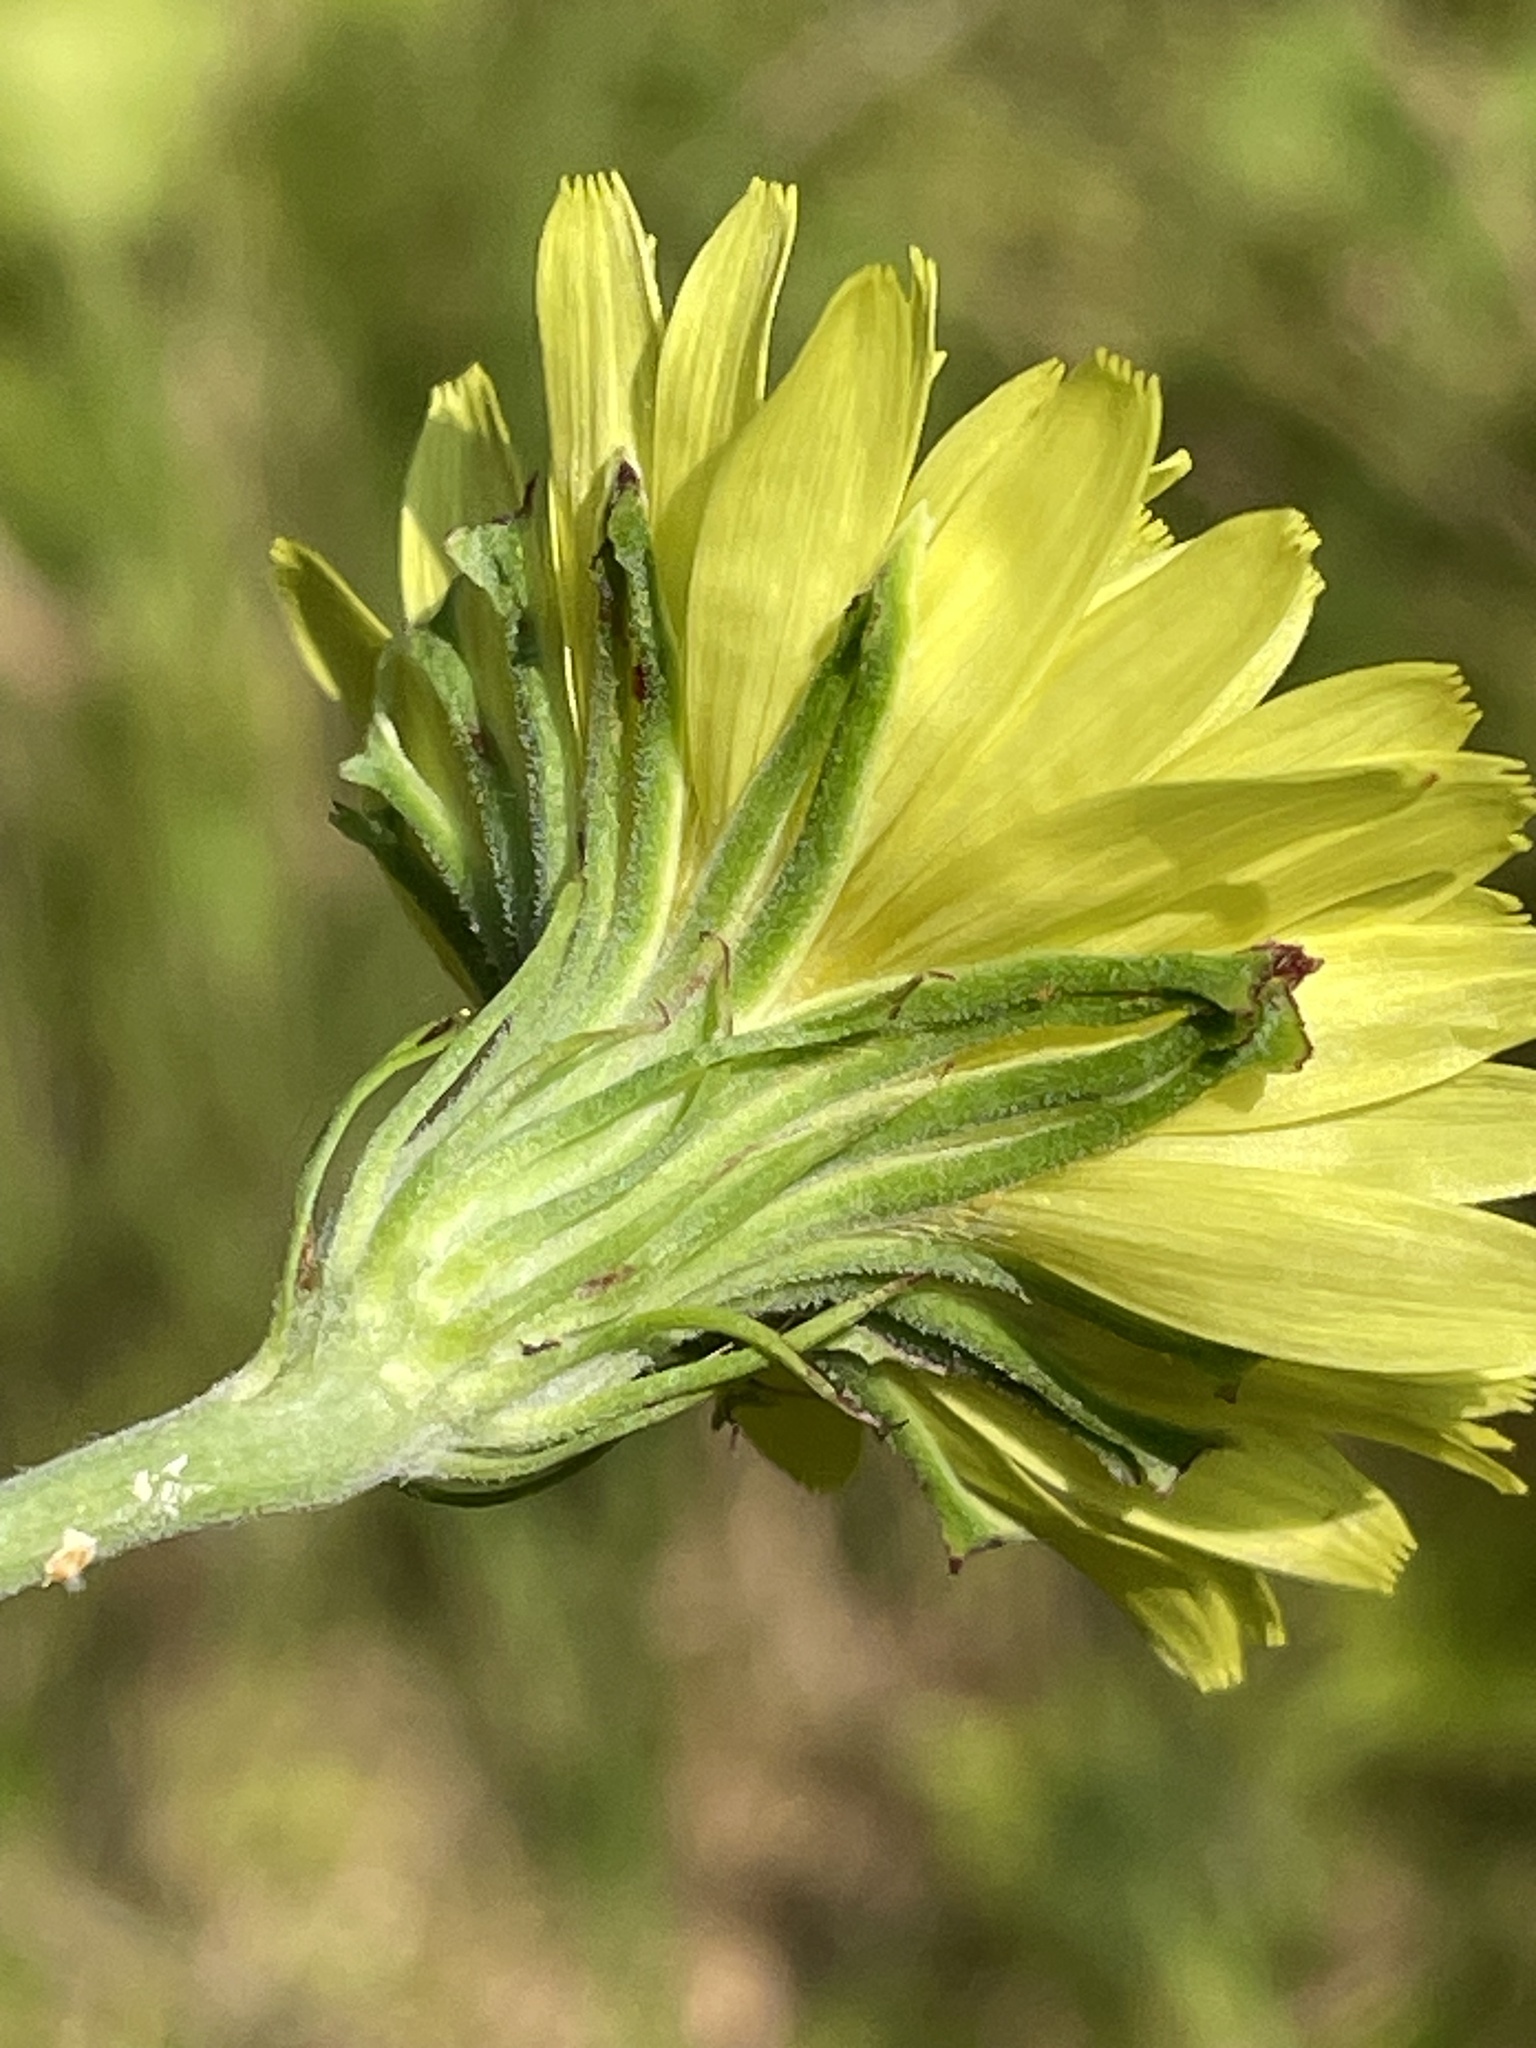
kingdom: Plantae
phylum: Tracheophyta
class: Magnoliopsida
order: Asterales
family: Asteraceae
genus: Pyrrhopappus
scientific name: Pyrrhopappus carolinianus
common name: Carolina desert-chicory
